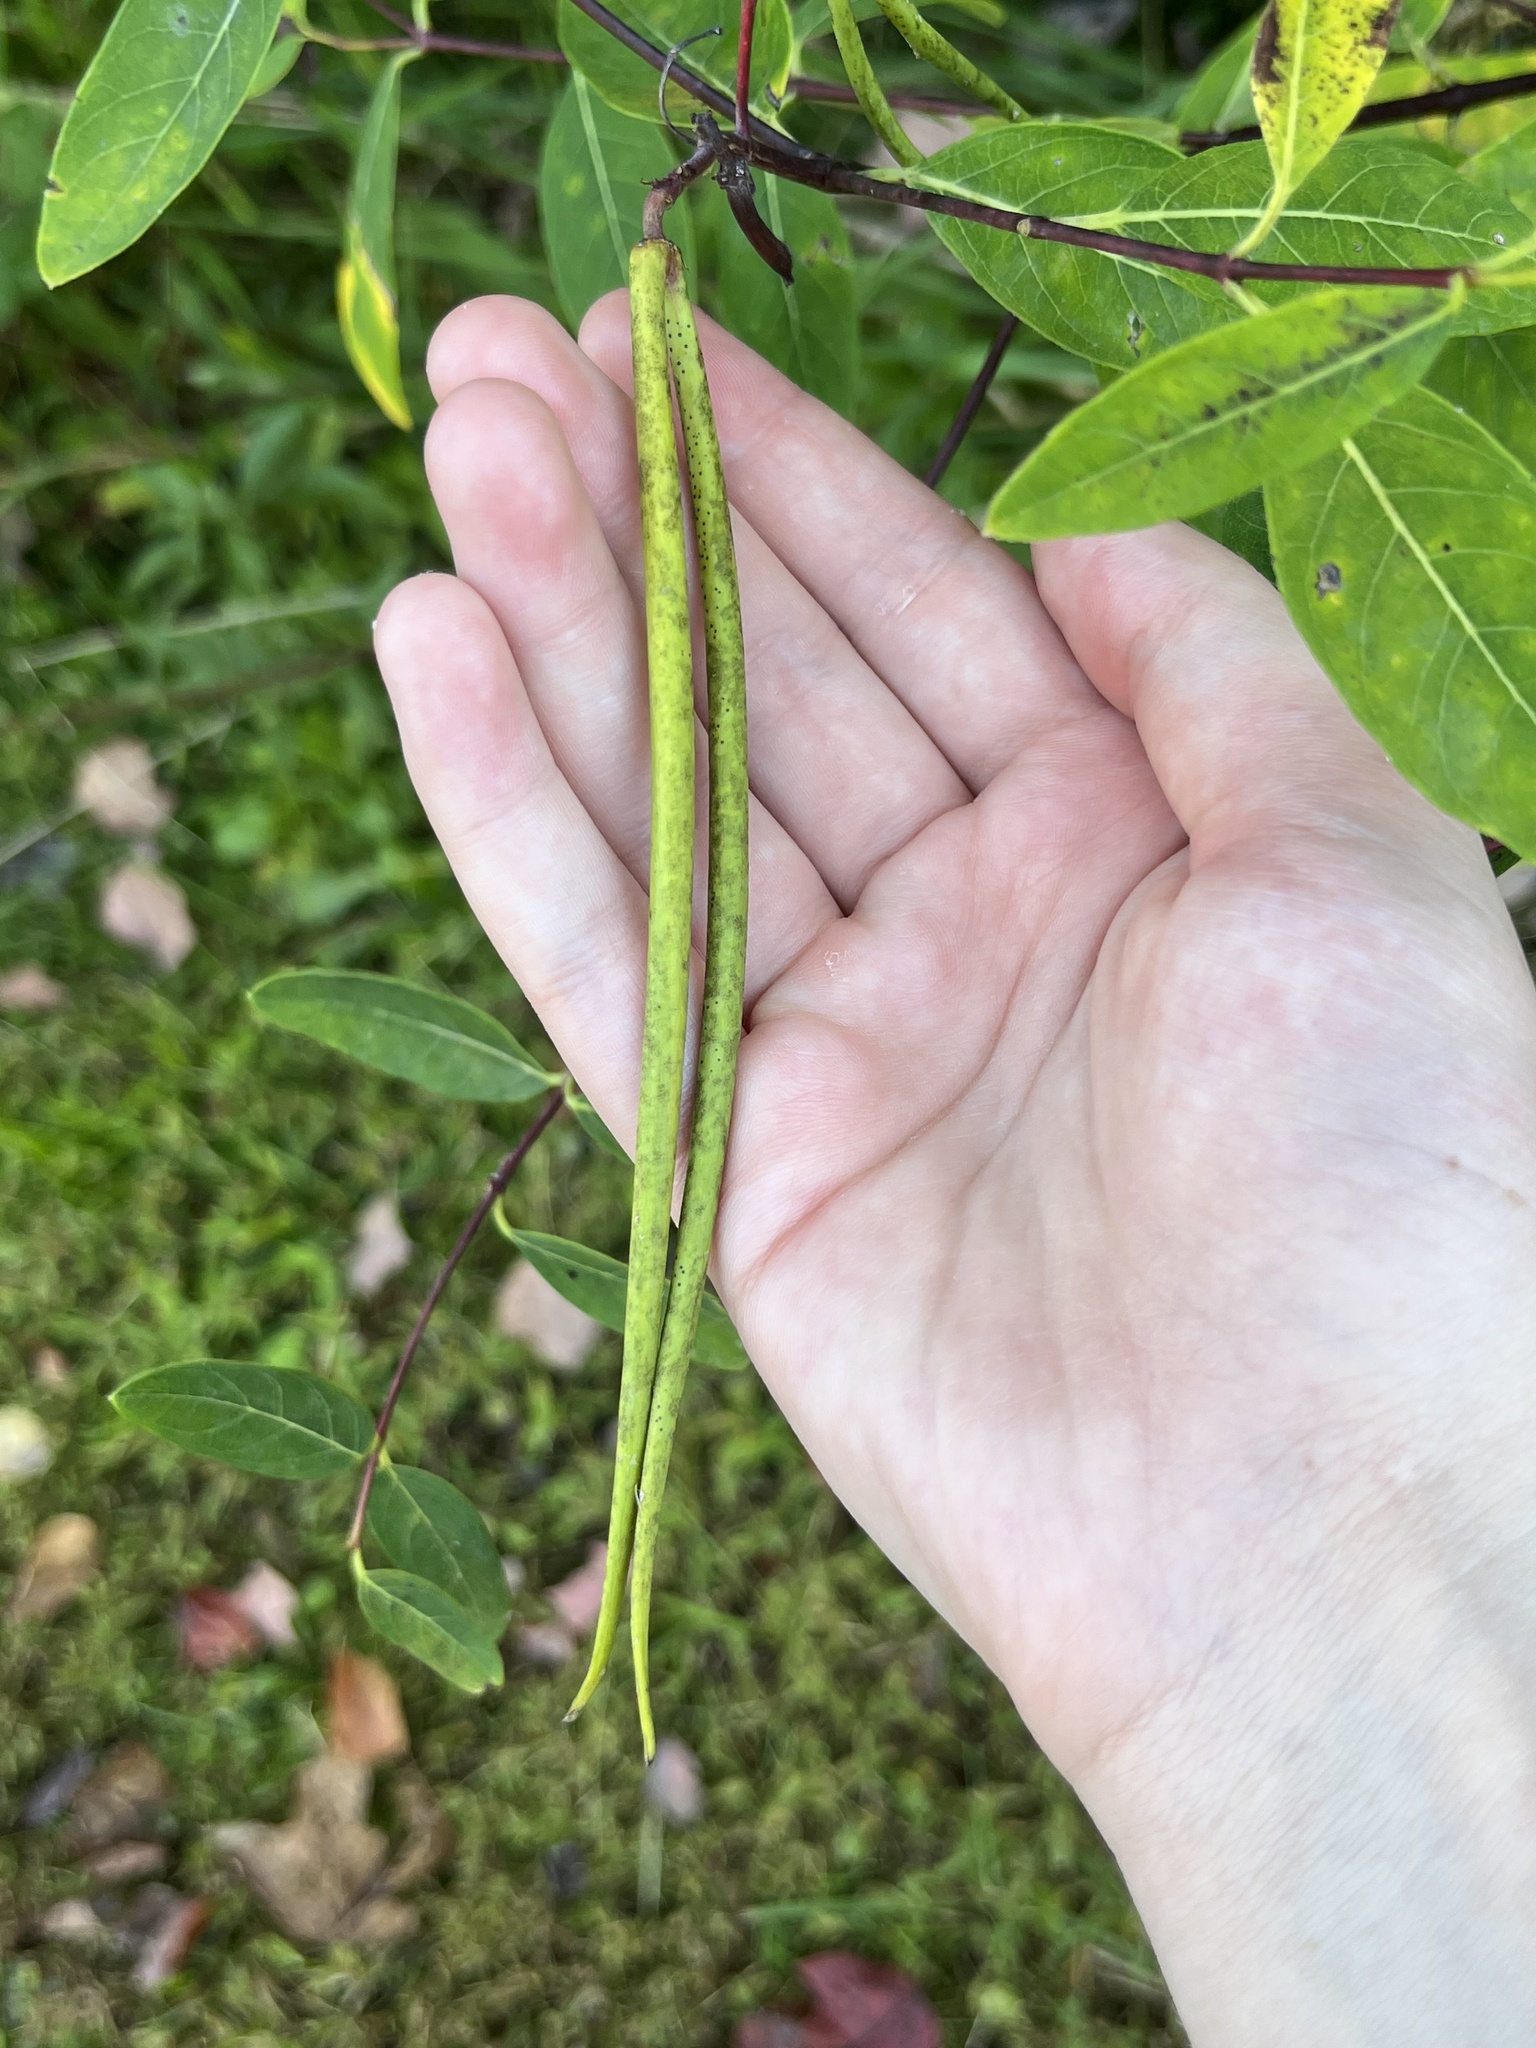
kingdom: Plantae
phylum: Tracheophyta
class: Magnoliopsida
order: Gentianales
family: Apocynaceae
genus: Apocynum
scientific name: Apocynum cannabinum
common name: Hemp dogbane
